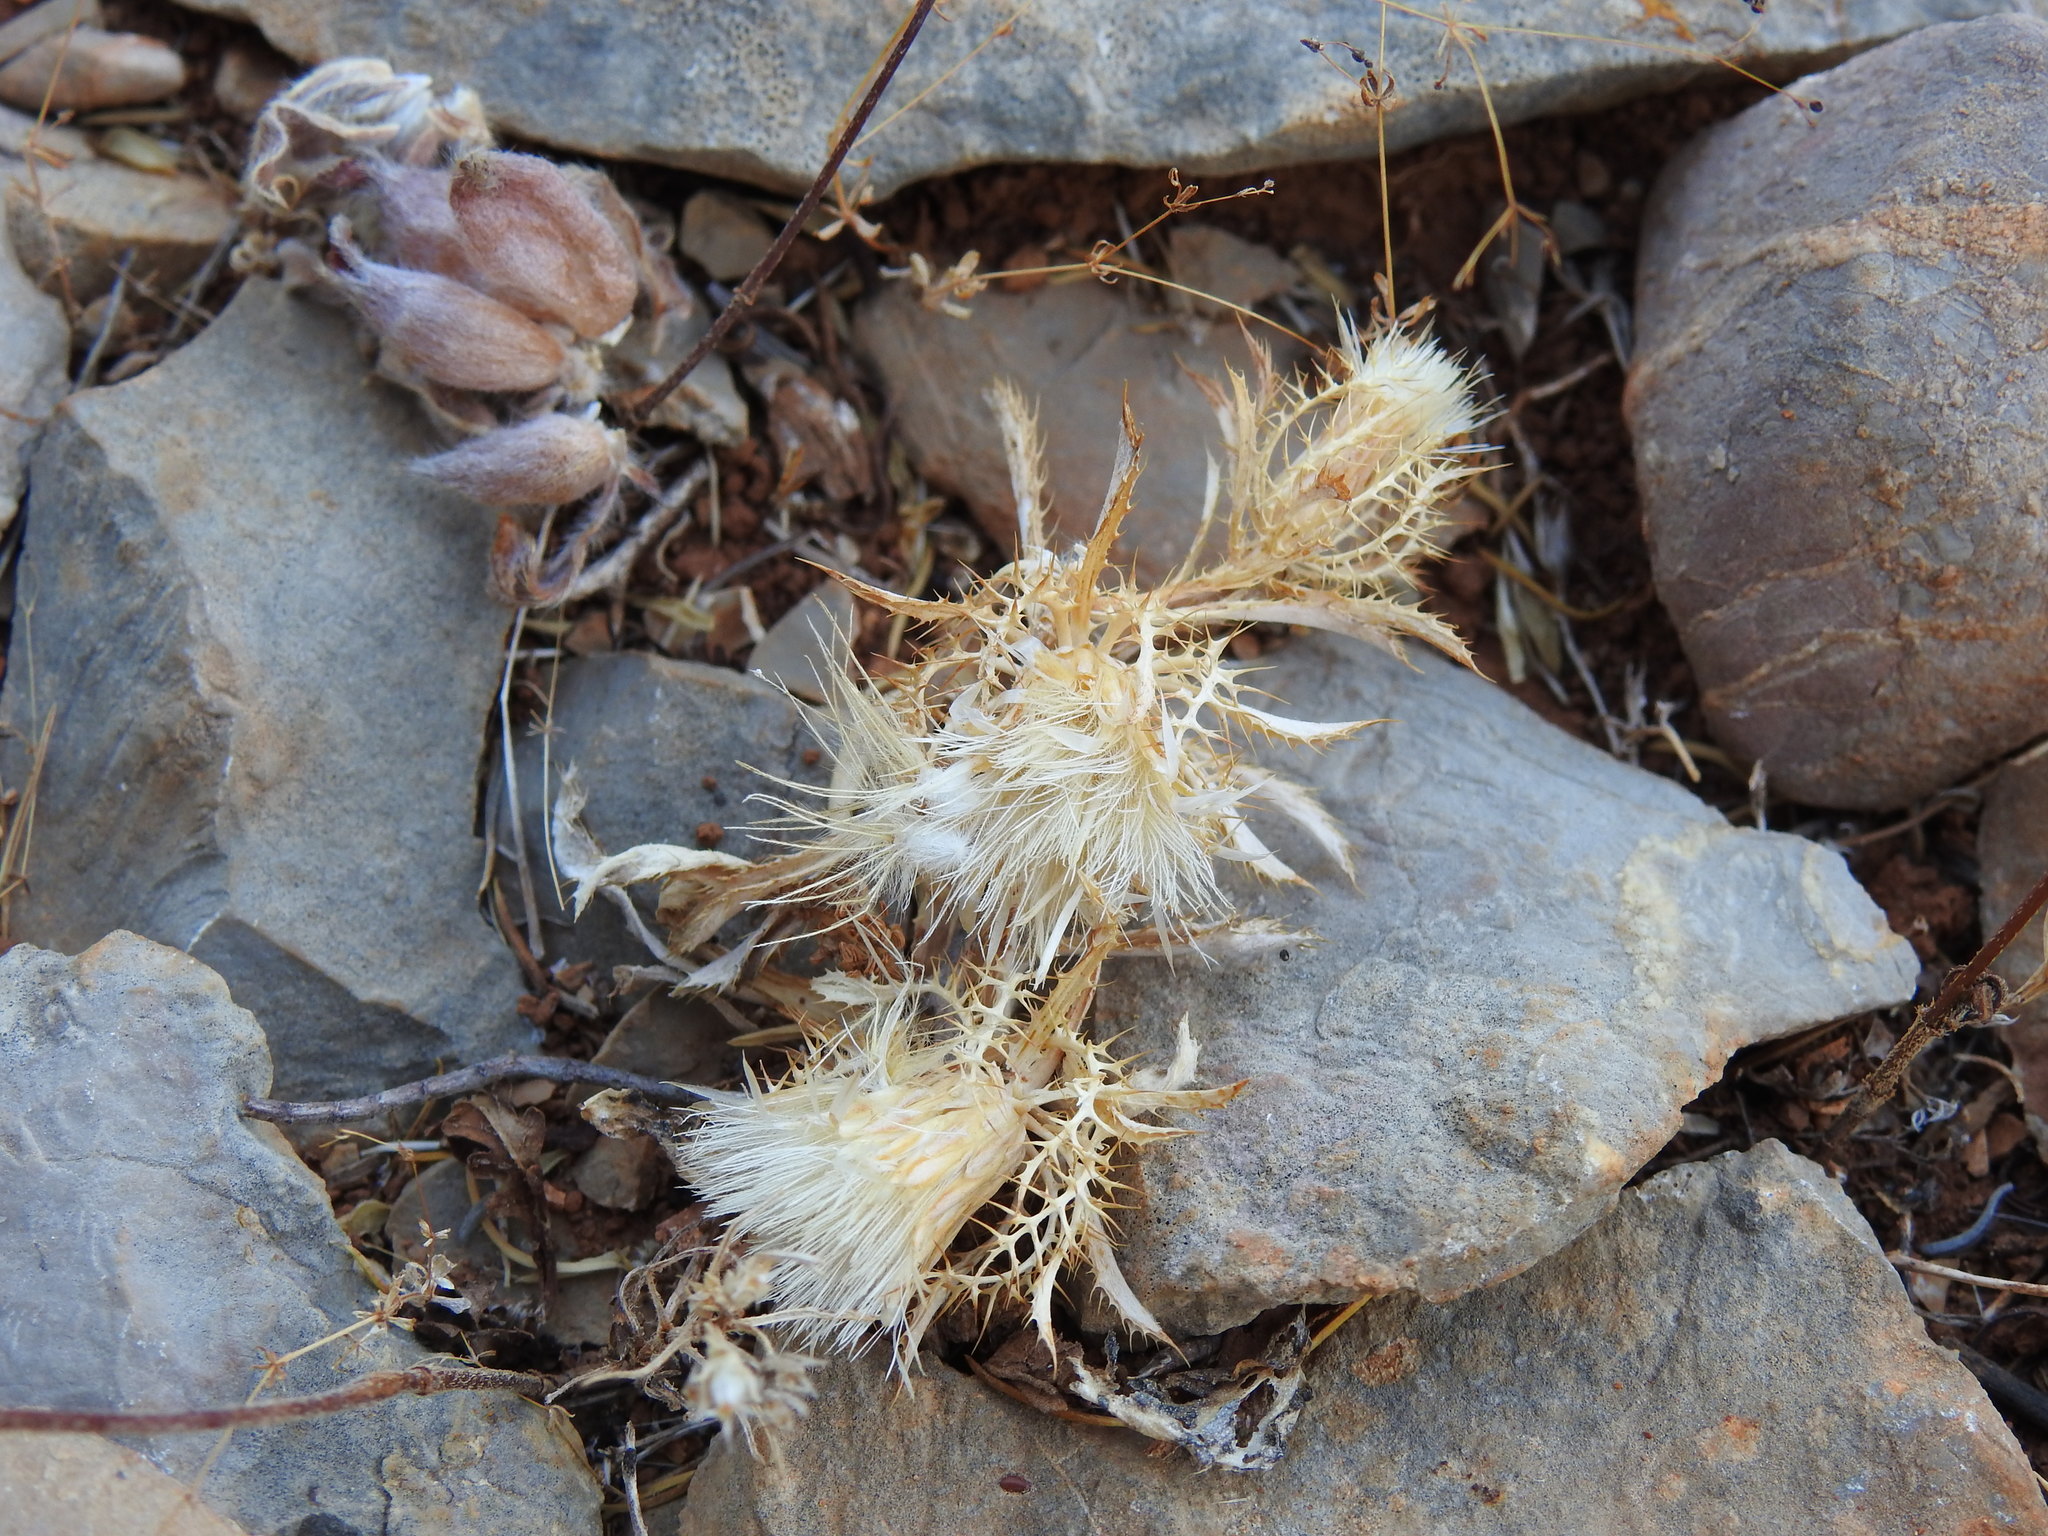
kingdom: Plantae
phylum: Tracheophyta
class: Magnoliopsida
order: Asterales
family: Asteraceae
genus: Atractylis
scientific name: Atractylis cancellata
